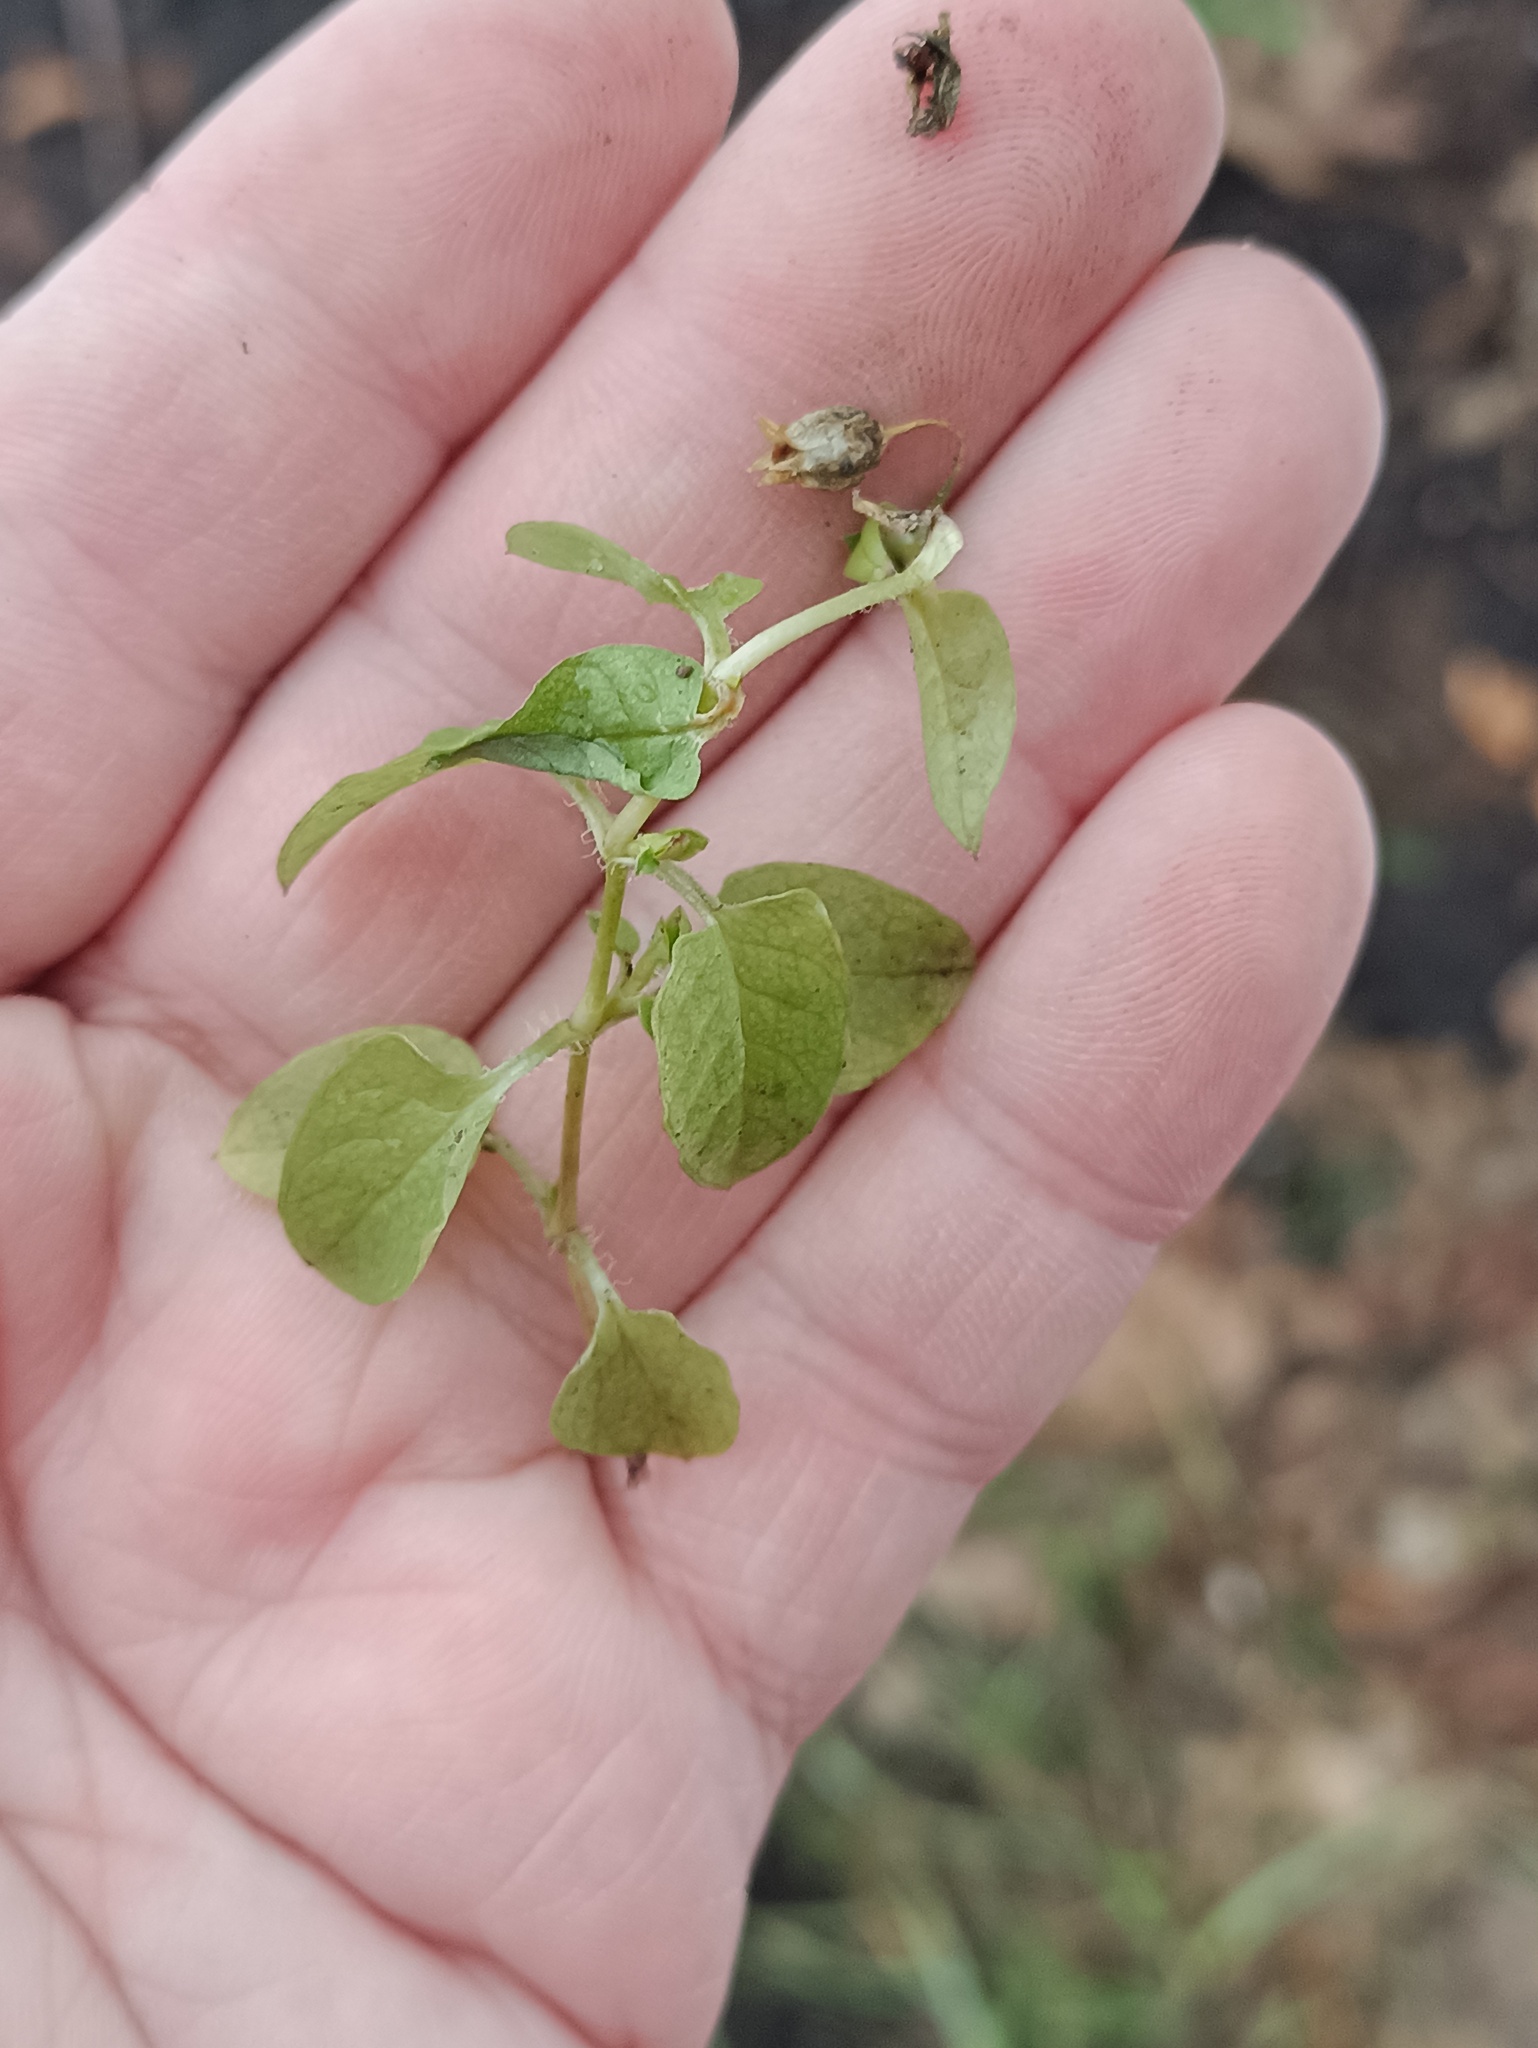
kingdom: Plantae
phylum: Tracheophyta
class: Magnoliopsida
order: Caryophyllales
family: Caryophyllaceae
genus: Stellaria
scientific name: Stellaria media
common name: Common chickweed
